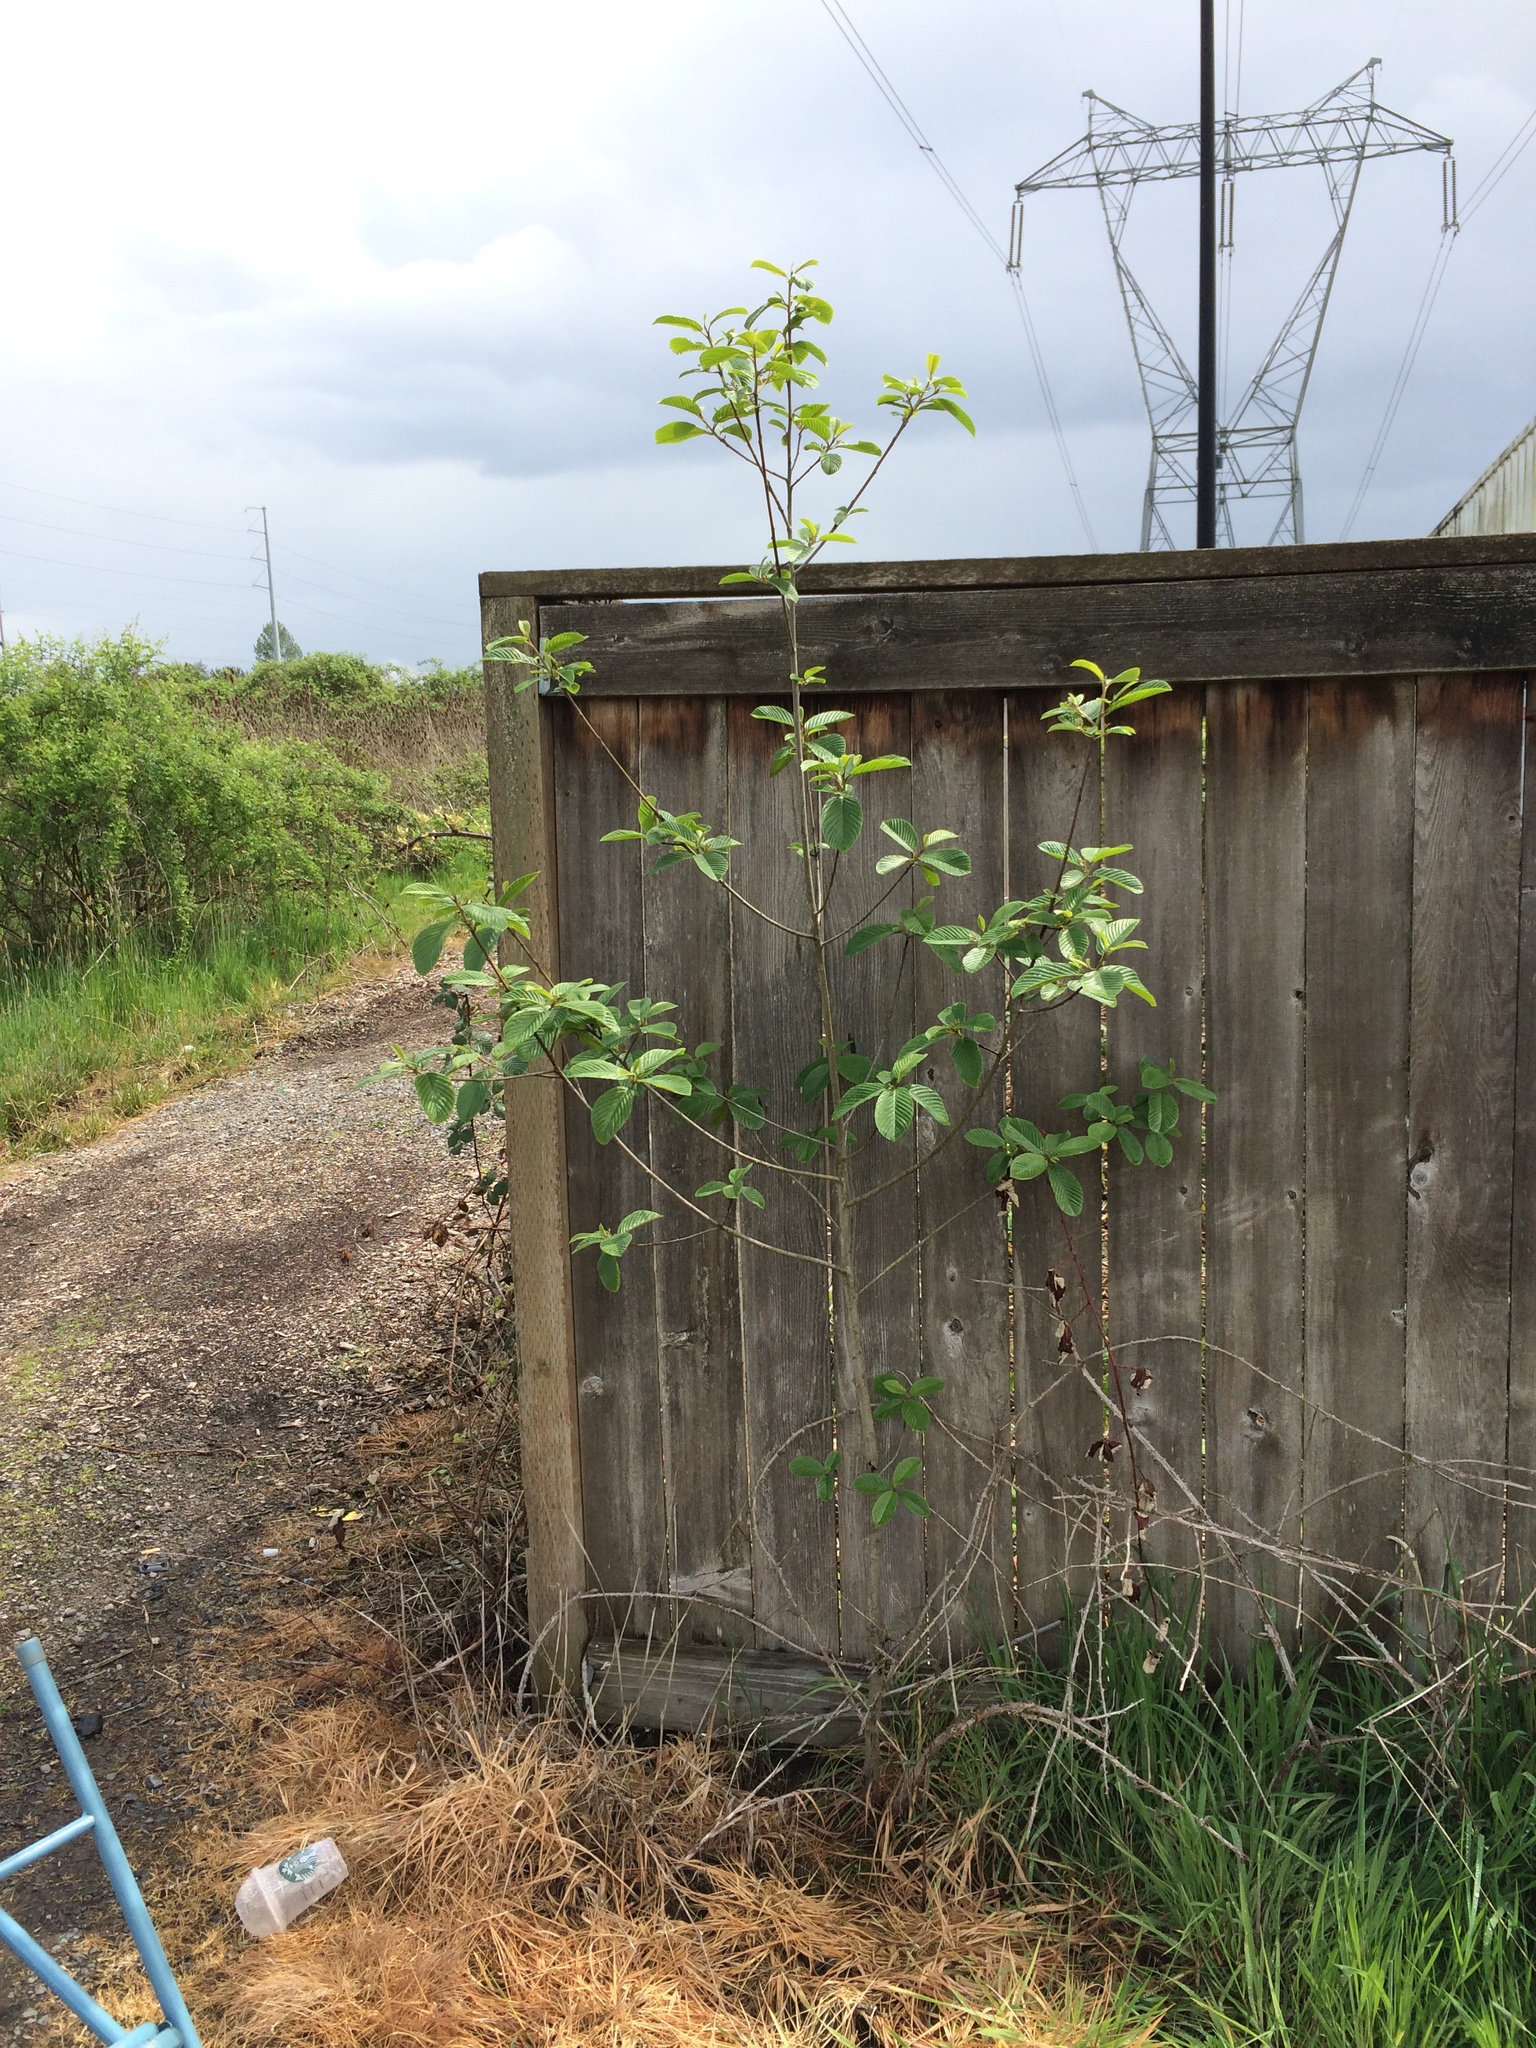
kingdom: Plantae
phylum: Tracheophyta
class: Magnoliopsida
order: Rosales
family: Rhamnaceae
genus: Frangula
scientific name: Frangula purshiana
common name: Cascara buckthorn
